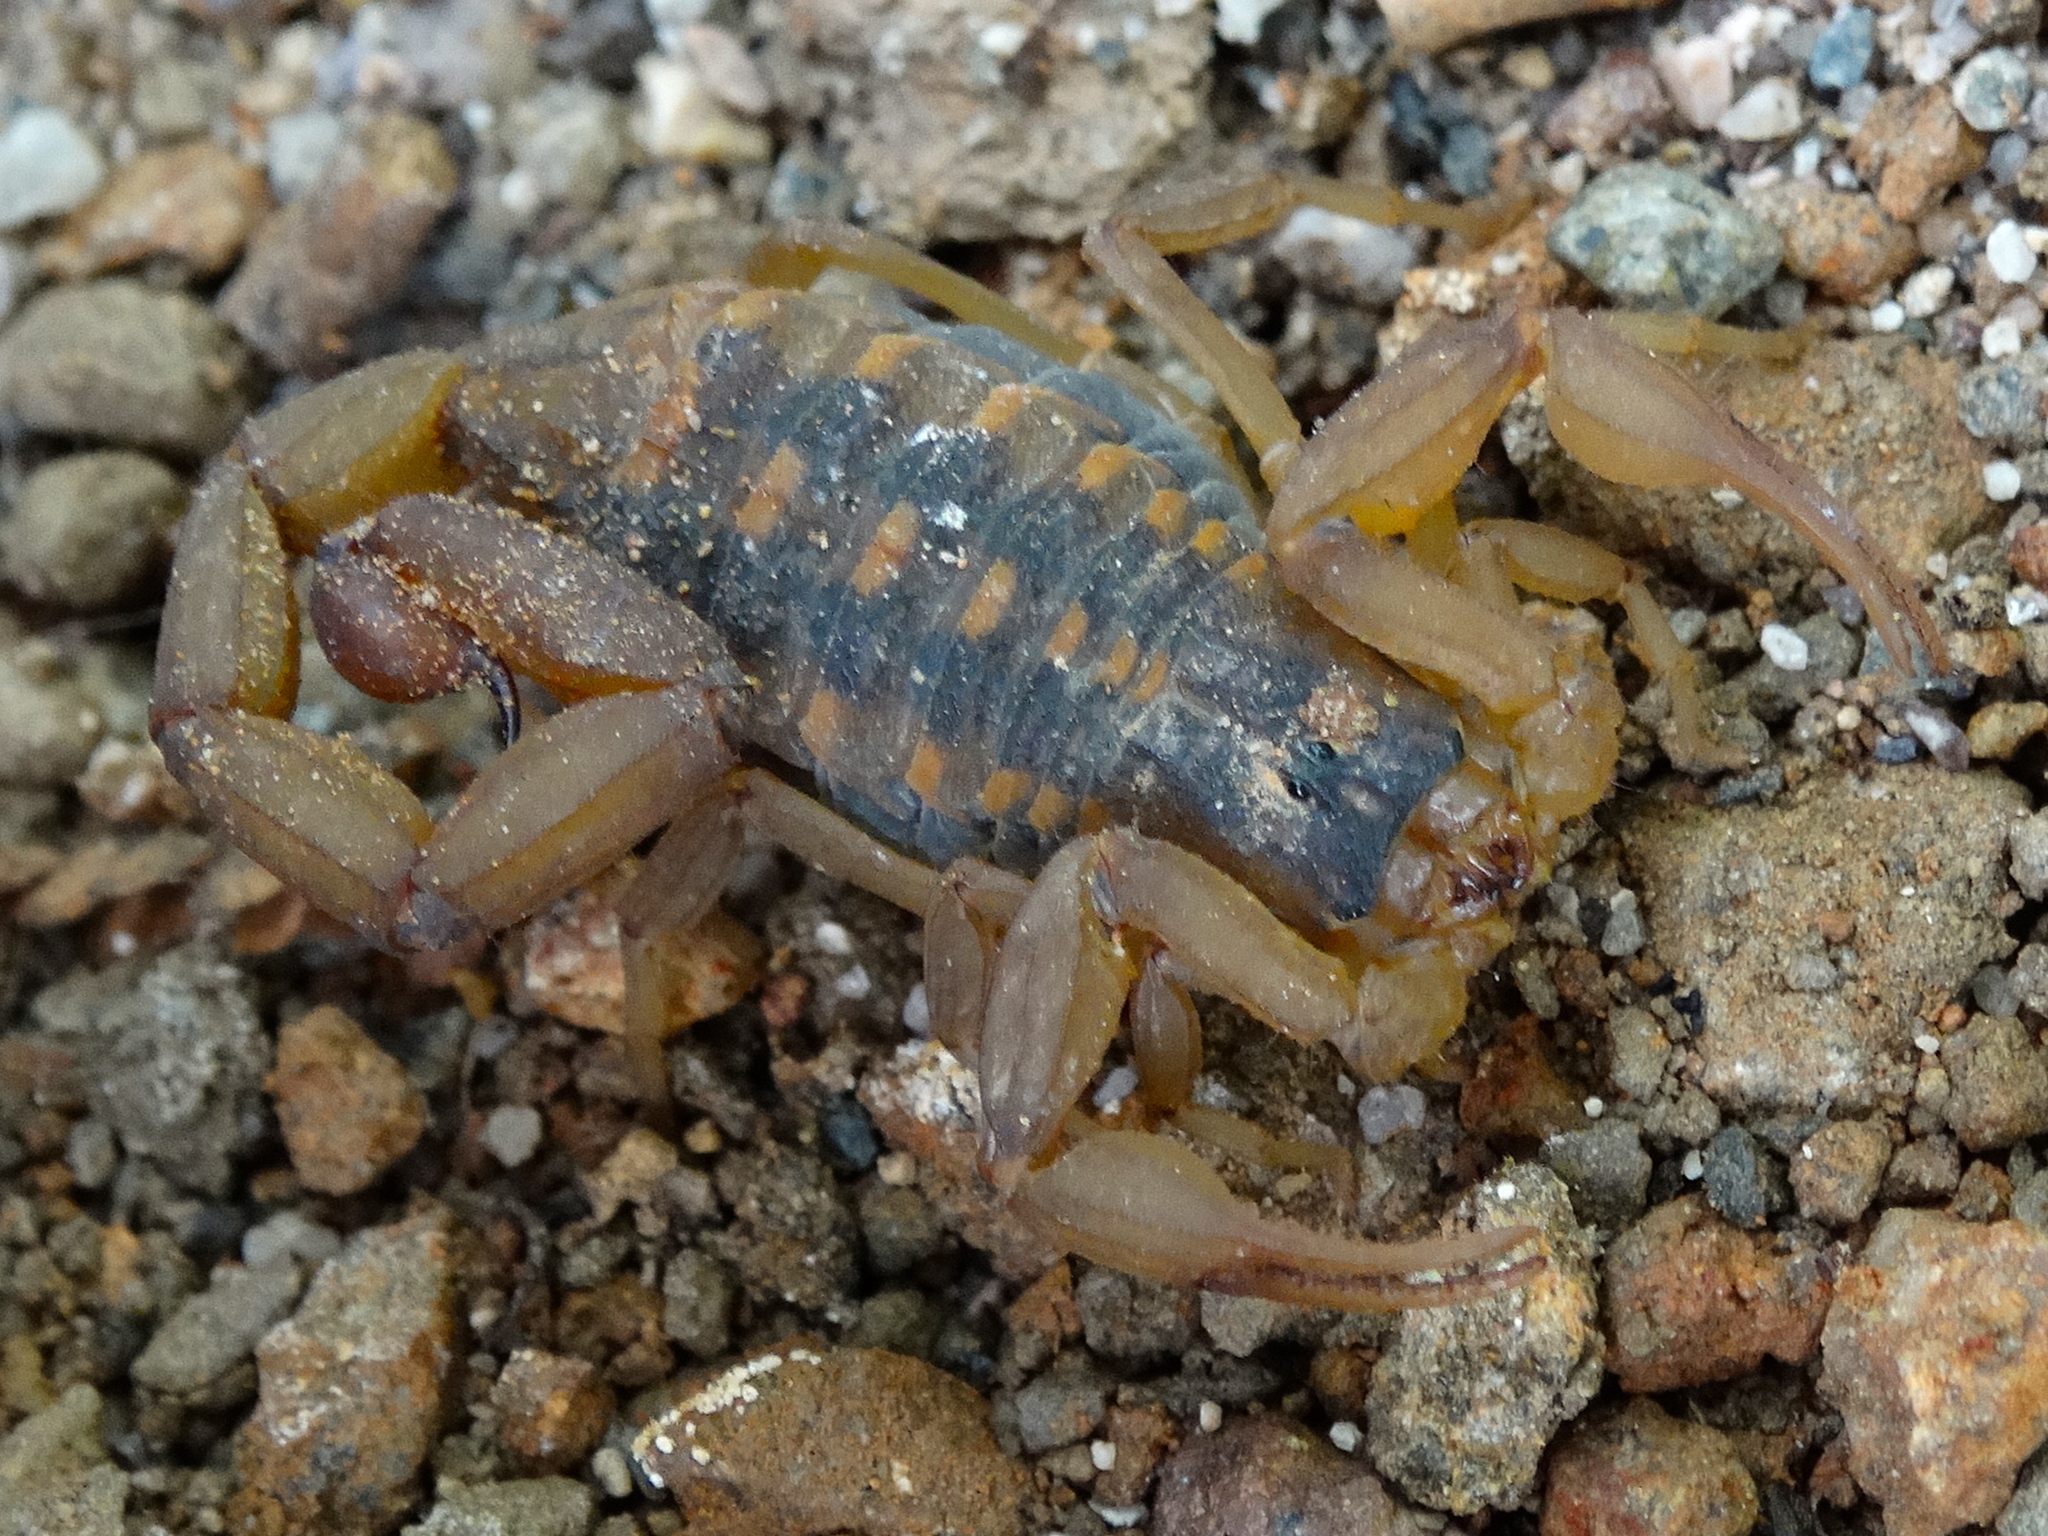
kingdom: Animalia
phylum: Arthropoda
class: Arachnida
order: Scorpiones
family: Buthidae
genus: Centruroides
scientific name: Centruroides baldazoi
